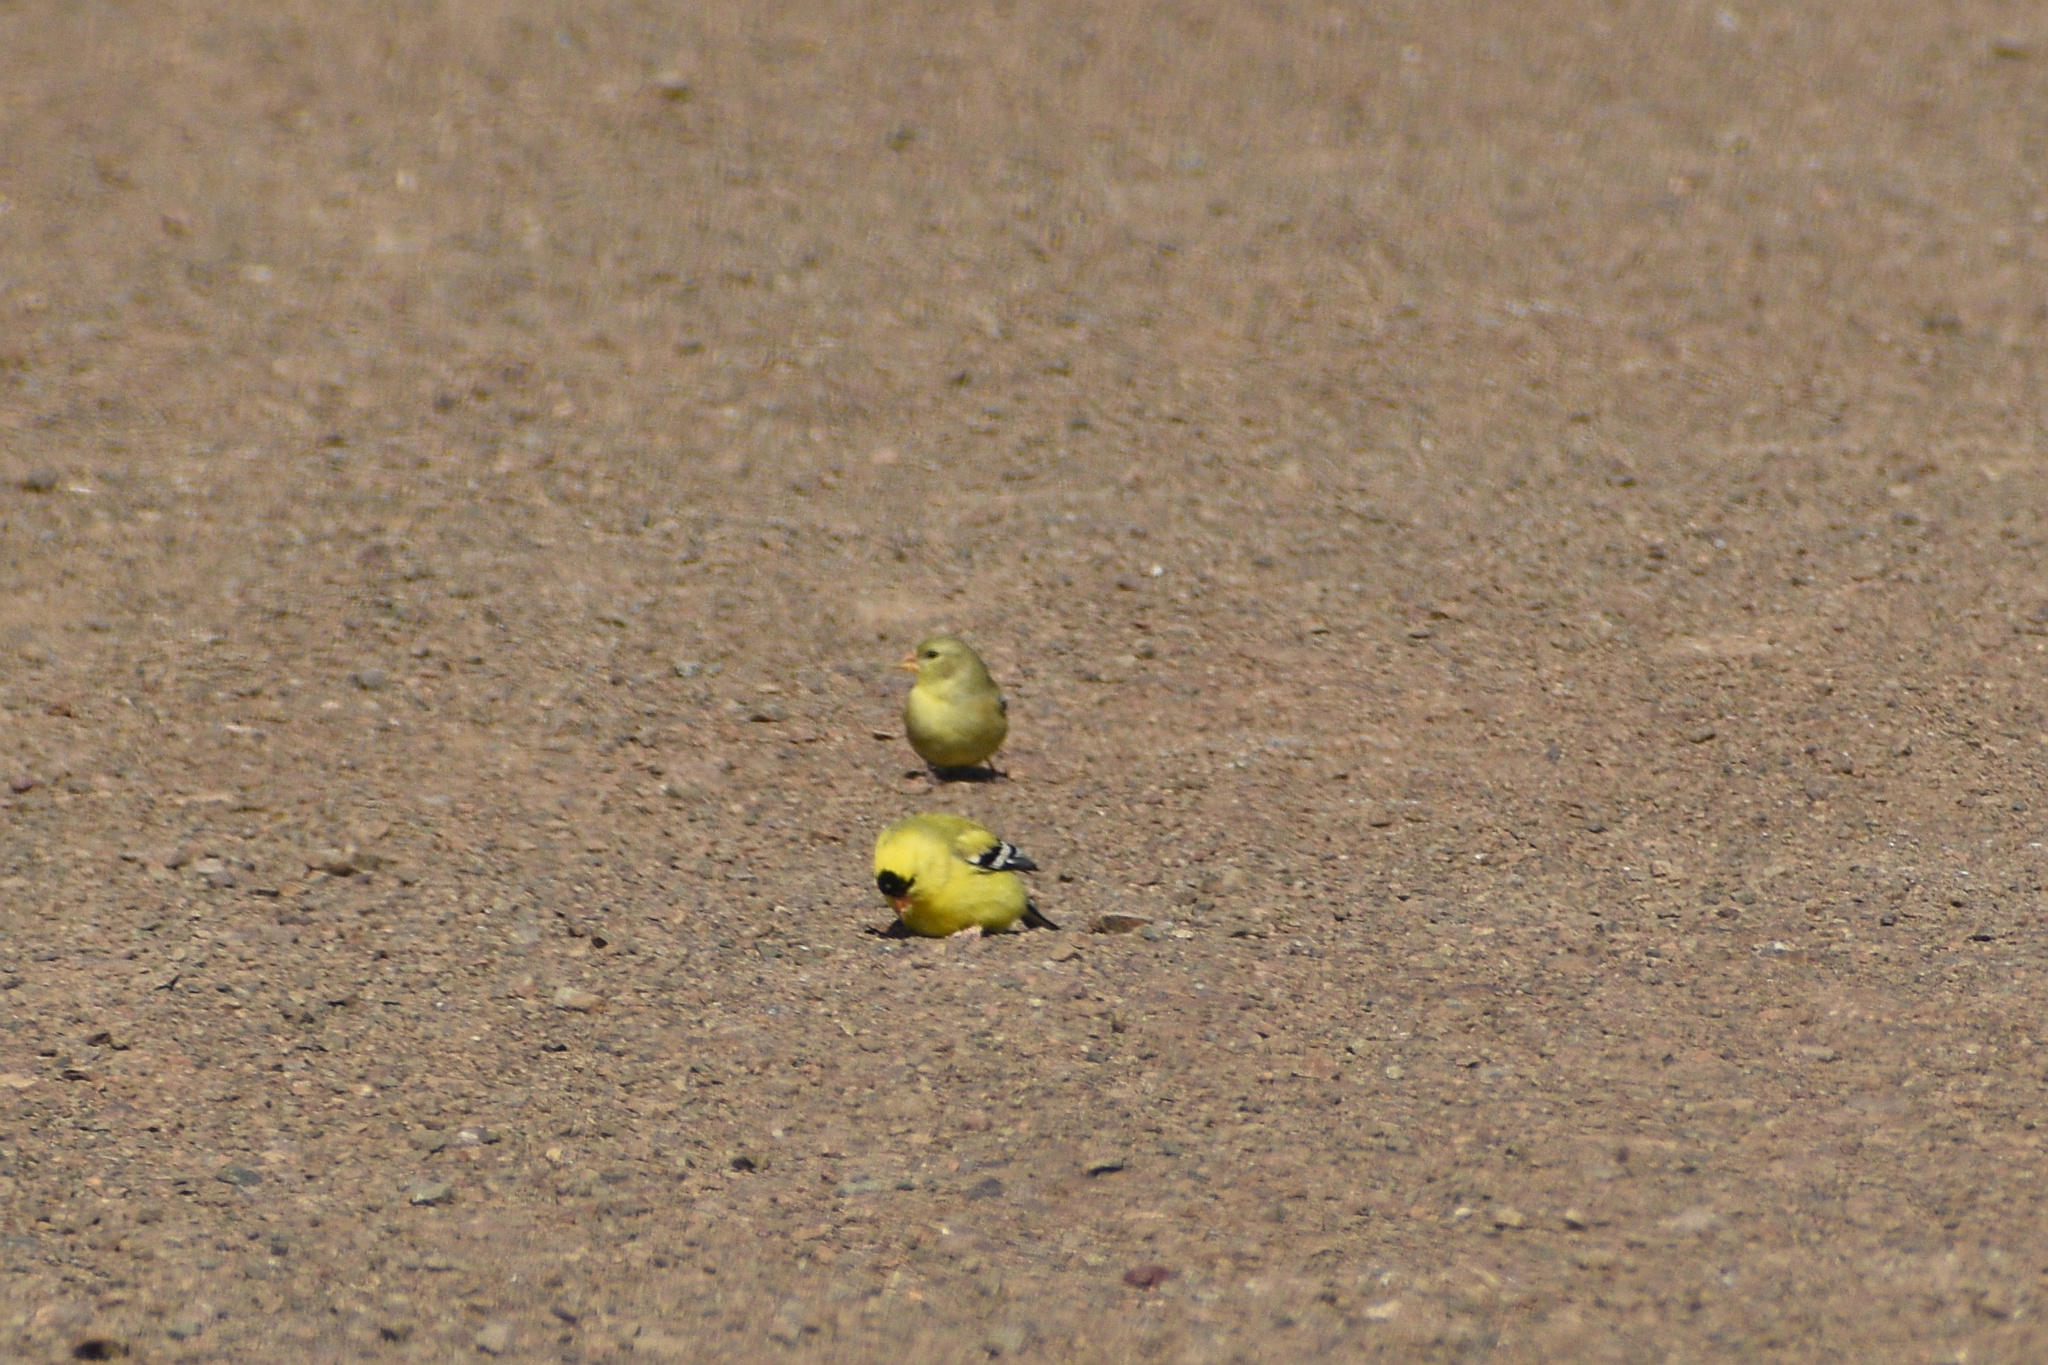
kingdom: Animalia
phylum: Chordata
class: Aves
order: Passeriformes
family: Fringillidae
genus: Spinus
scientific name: Spinus tristis
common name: American goldfinch
